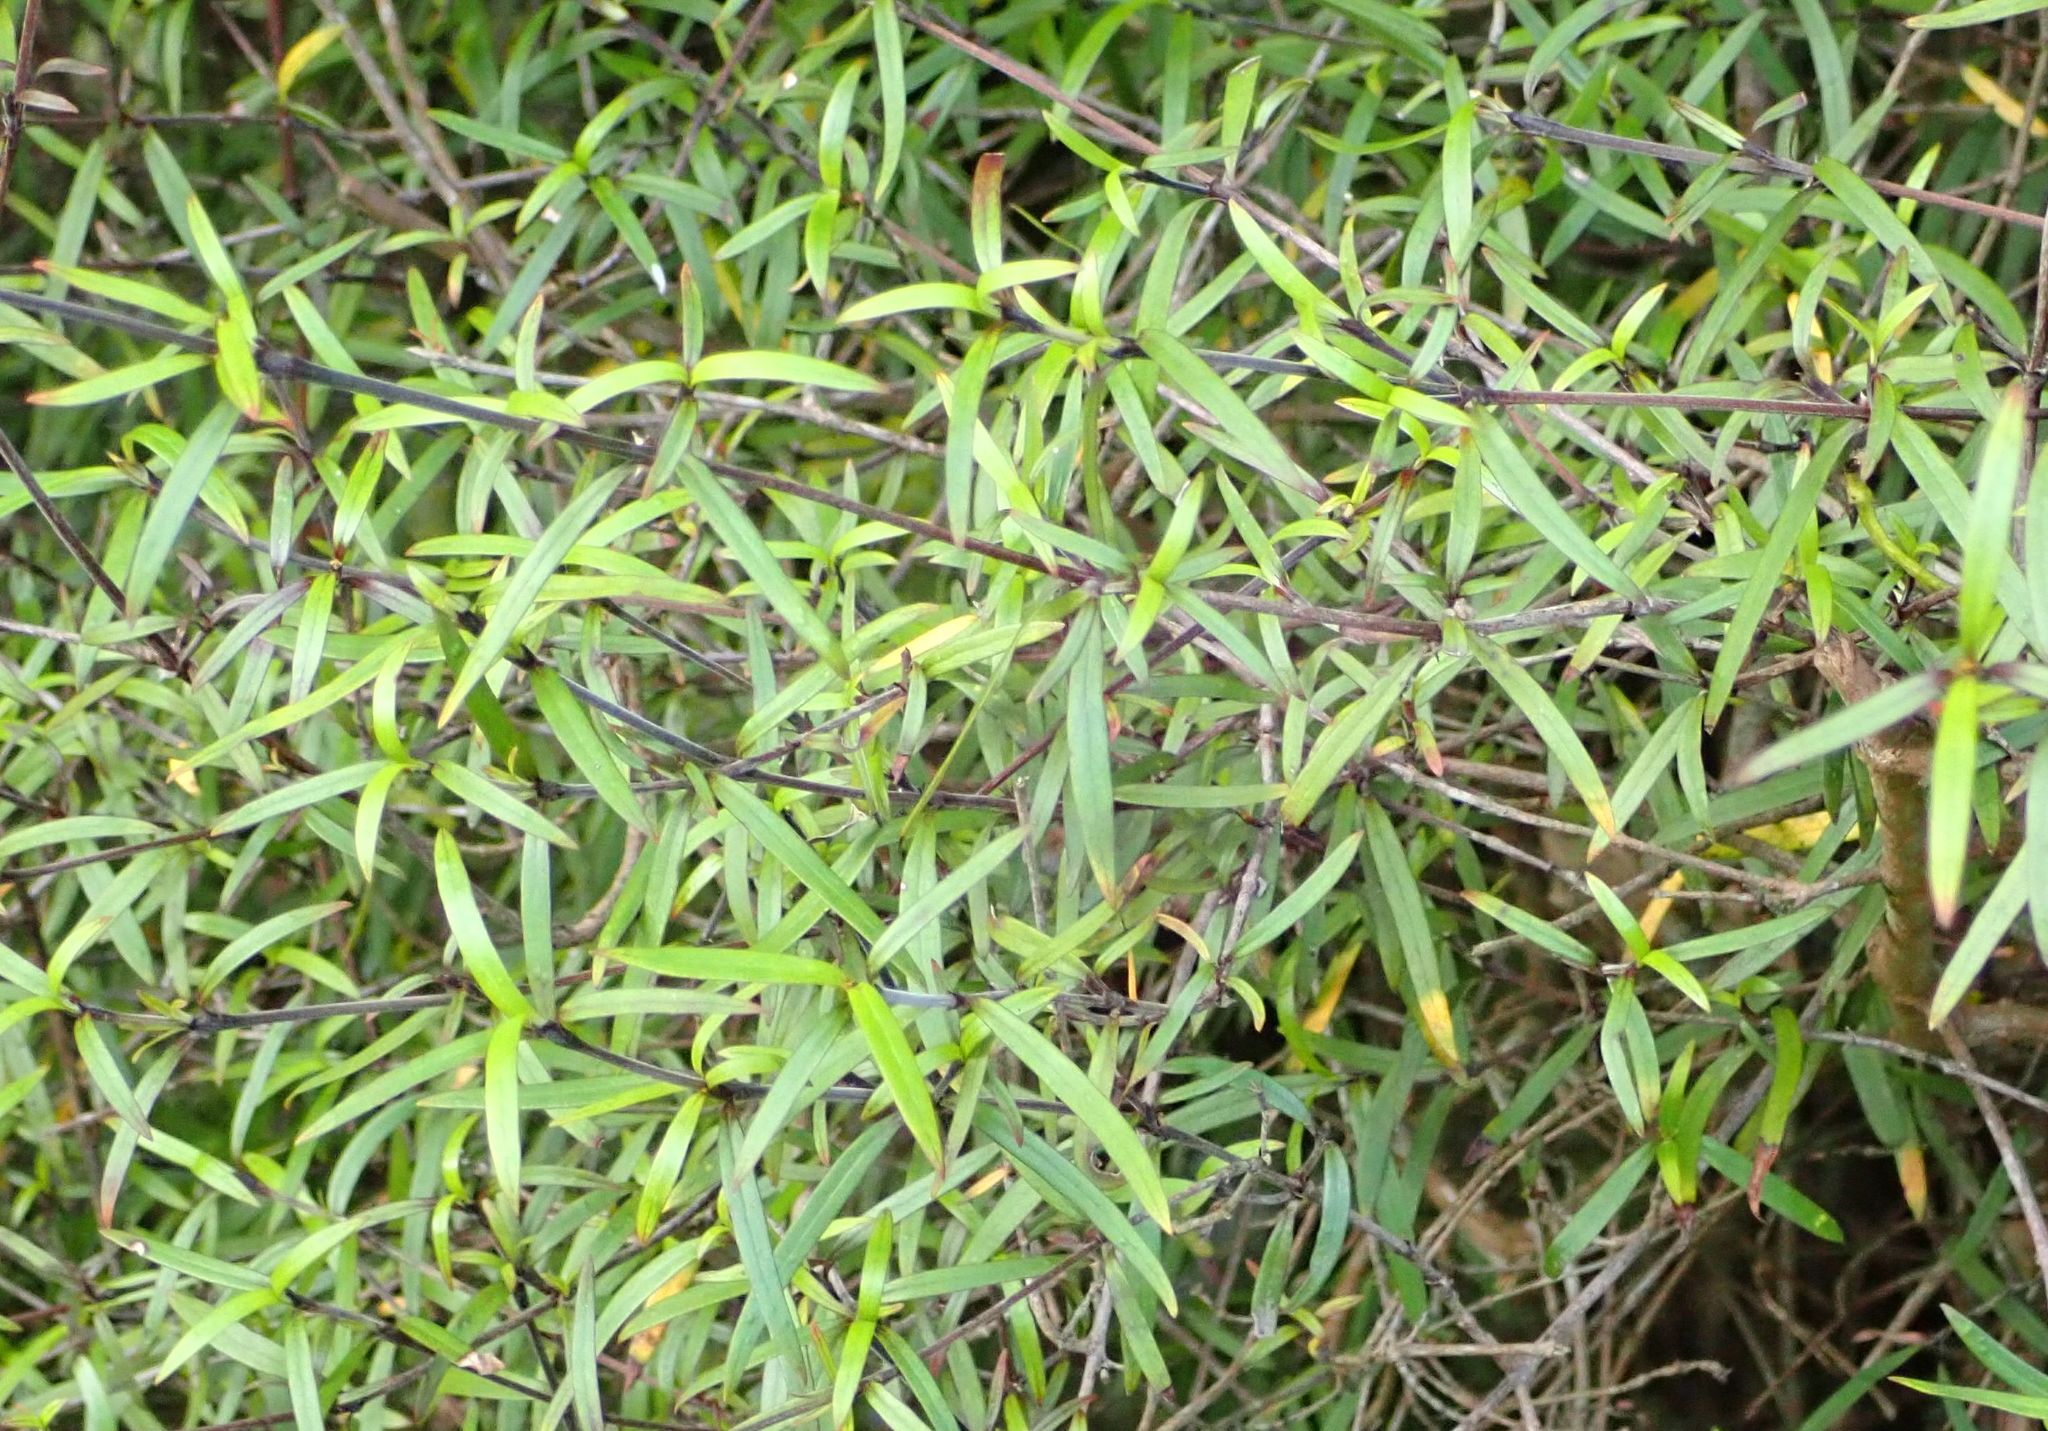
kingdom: Plantae
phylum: Tracheophyta
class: Magnoliopsida
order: Gentianales
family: Rubiaceae
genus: Coprosma
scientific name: Coprosma linariifolia
